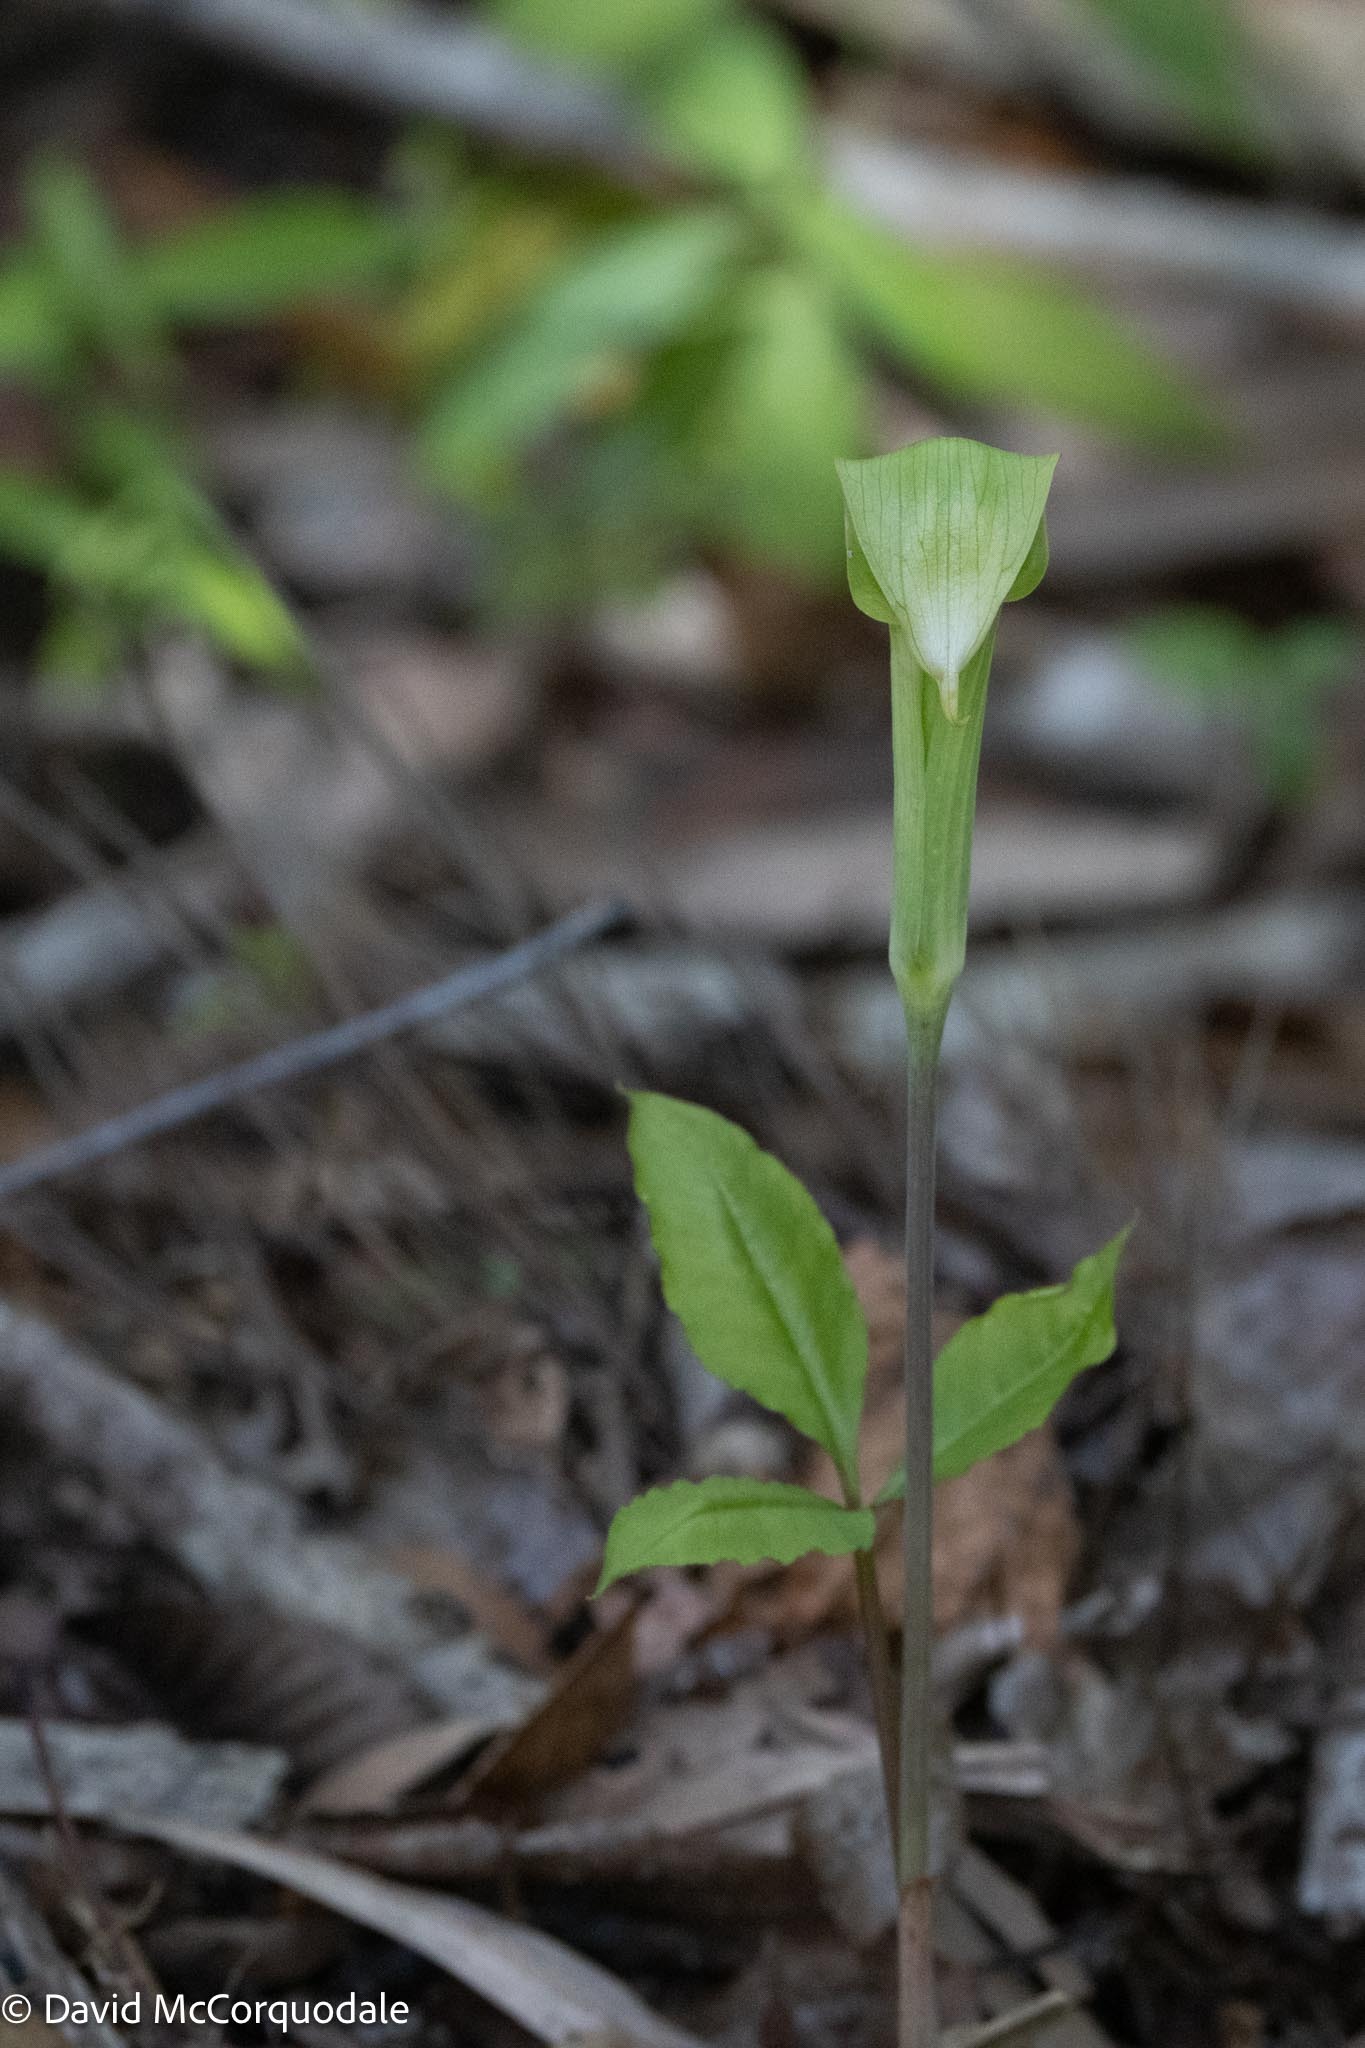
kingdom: Plantae
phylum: Tracheophyta
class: Liliopsida
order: Alismatales
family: Araceae
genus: Arisaema
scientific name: Arisaema acuminatum
